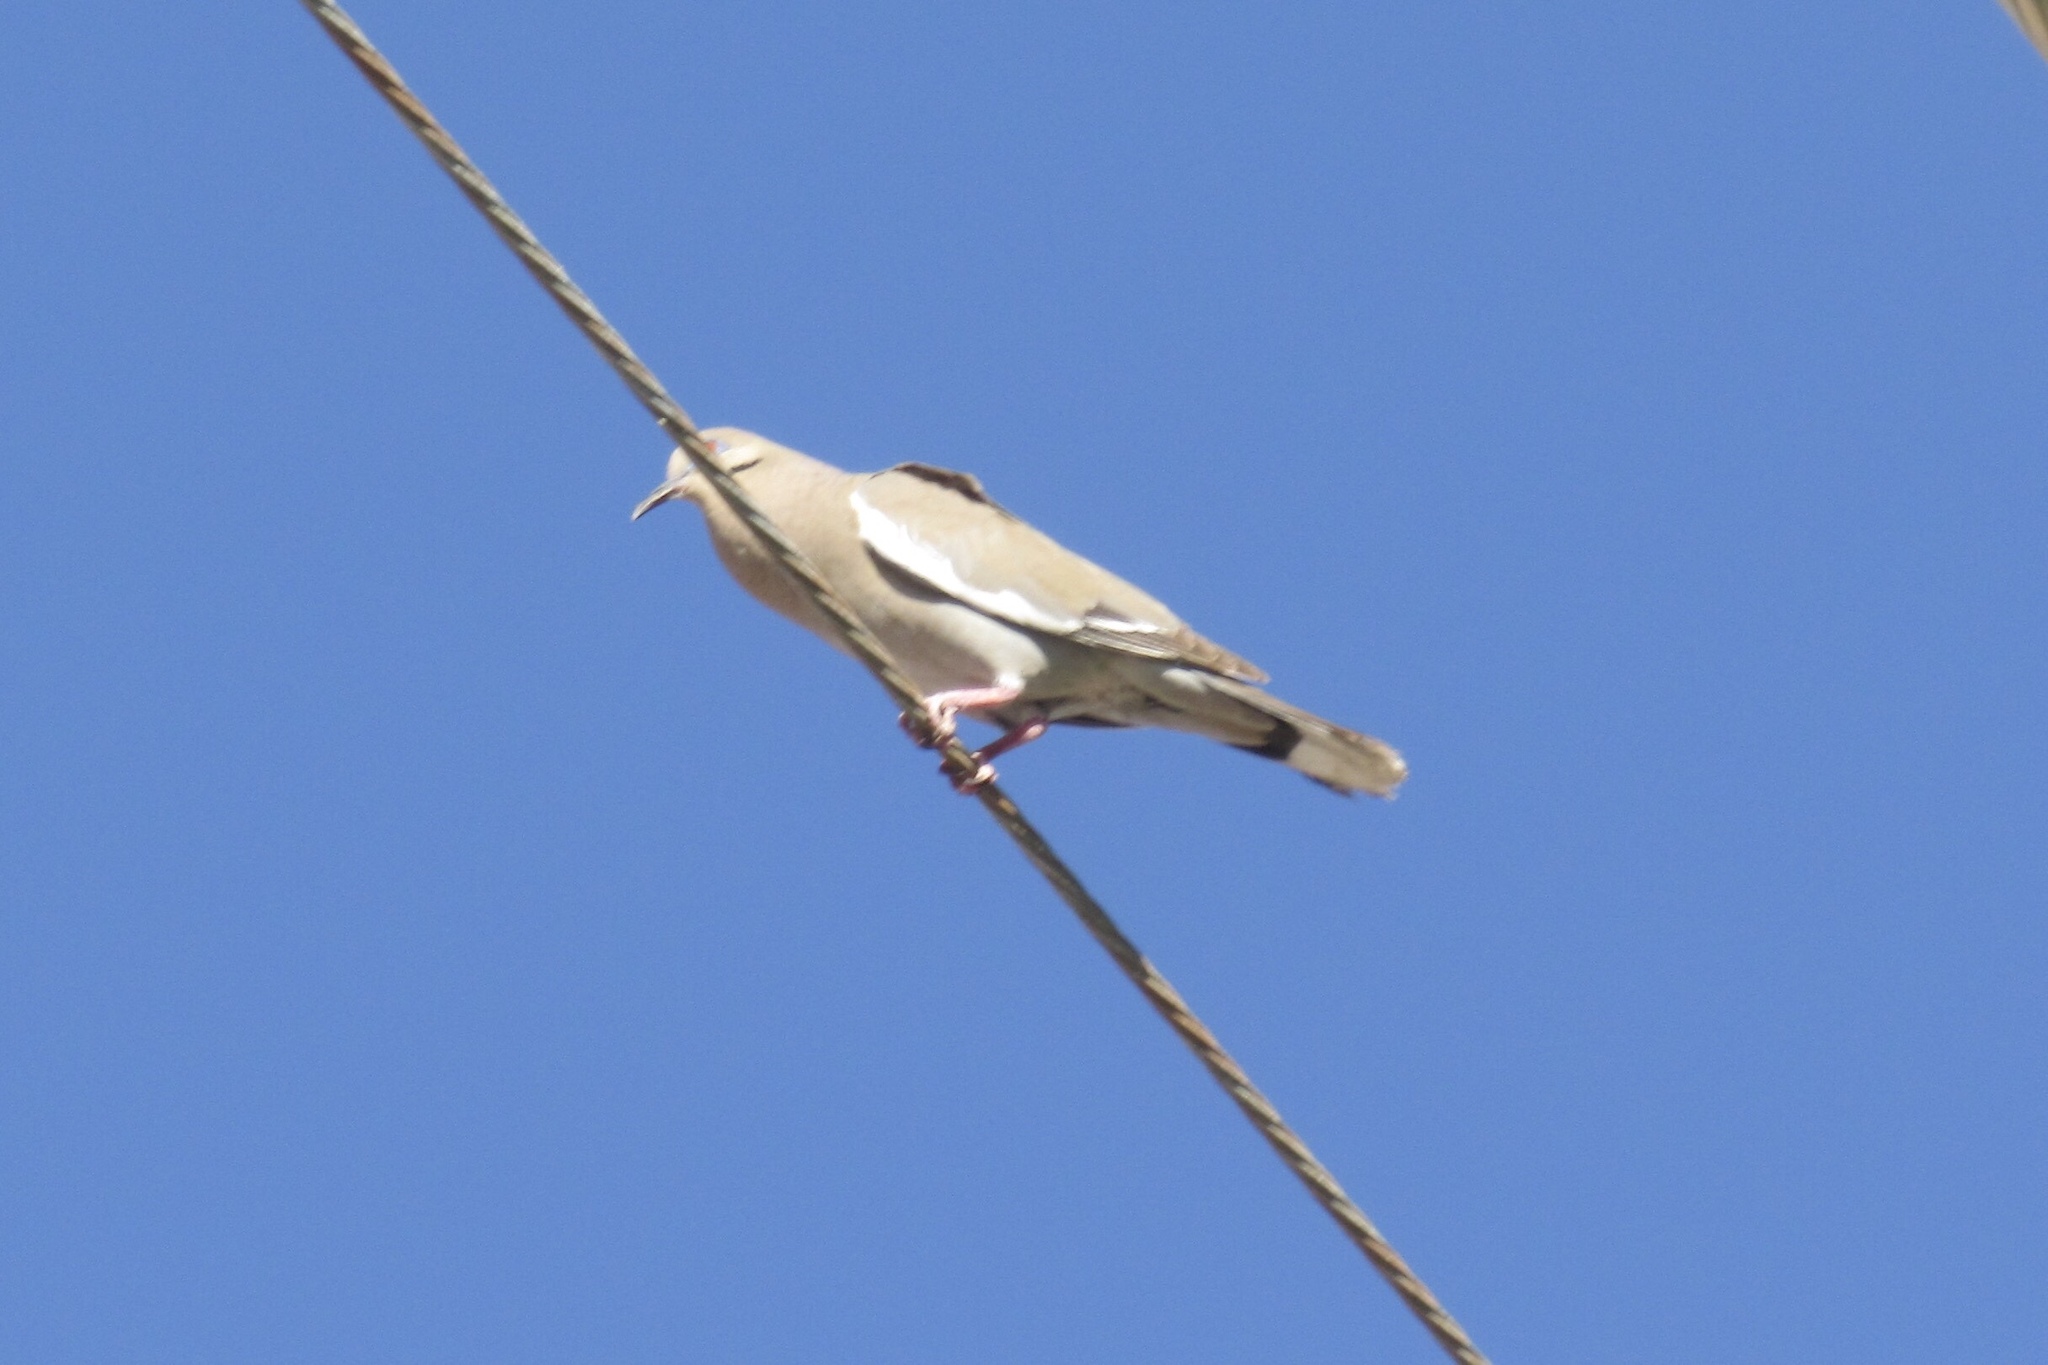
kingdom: Animalia
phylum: Chordata
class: Aves
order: Columbiformes
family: Columbidae
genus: Zenaida
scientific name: Zenaida asiatica
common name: White-winged dove
